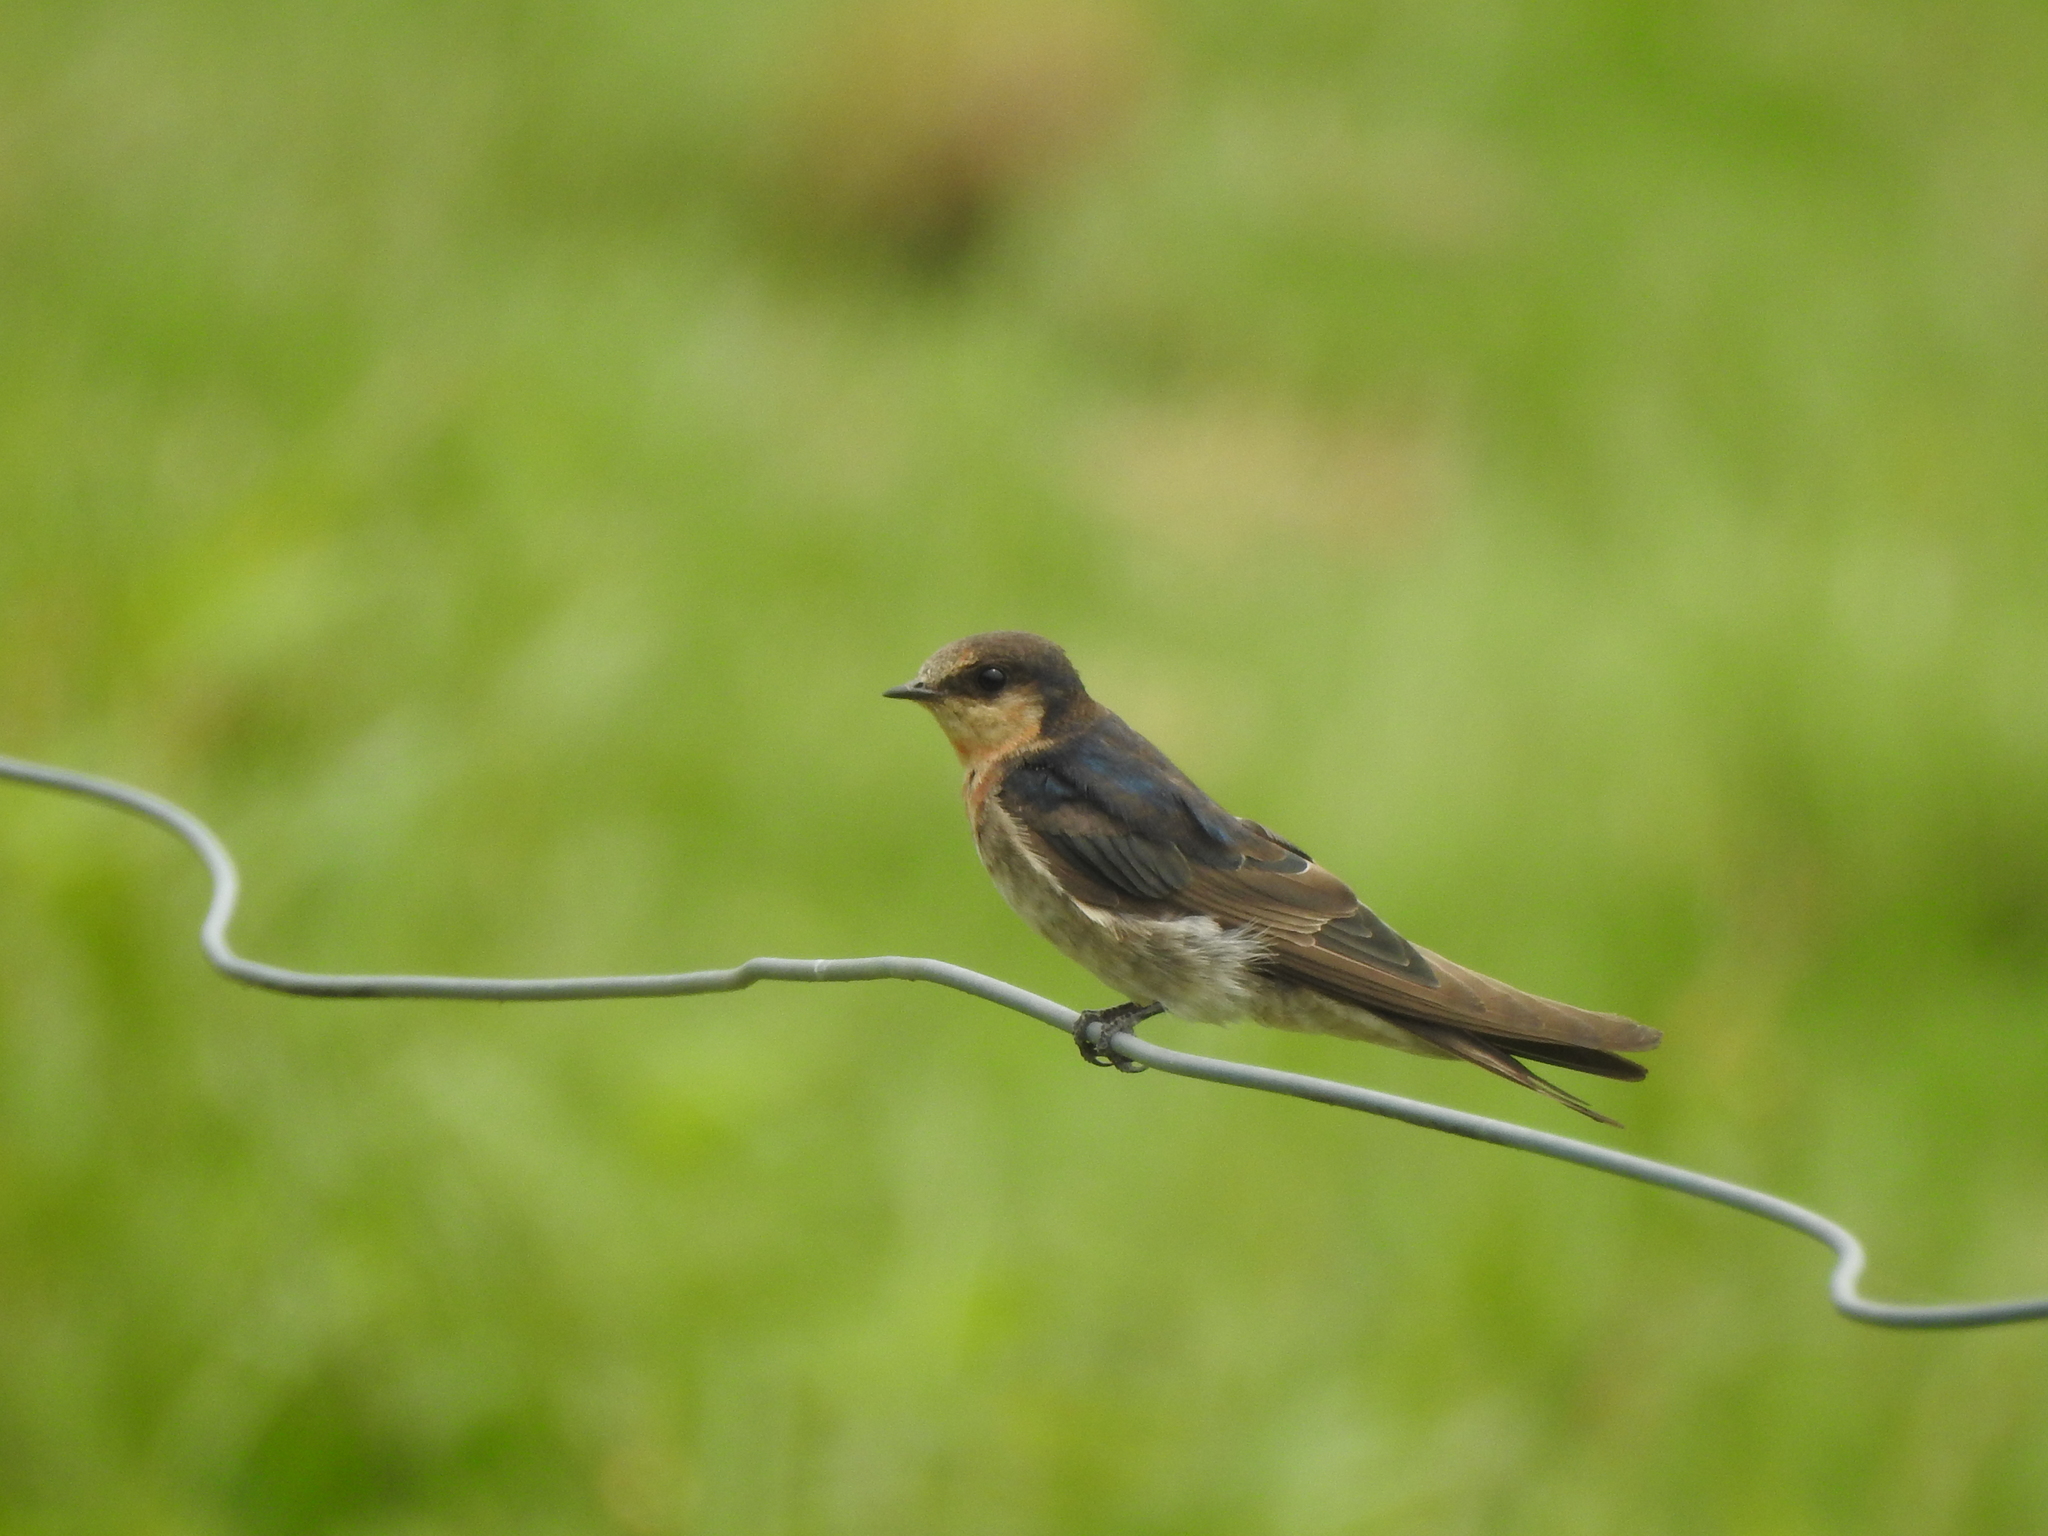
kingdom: Animalia
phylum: Chordata
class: Aves
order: Passeriformes
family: Hirundinidae
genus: Hirundo
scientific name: Hirundo neoxena
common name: Welcome swallow
